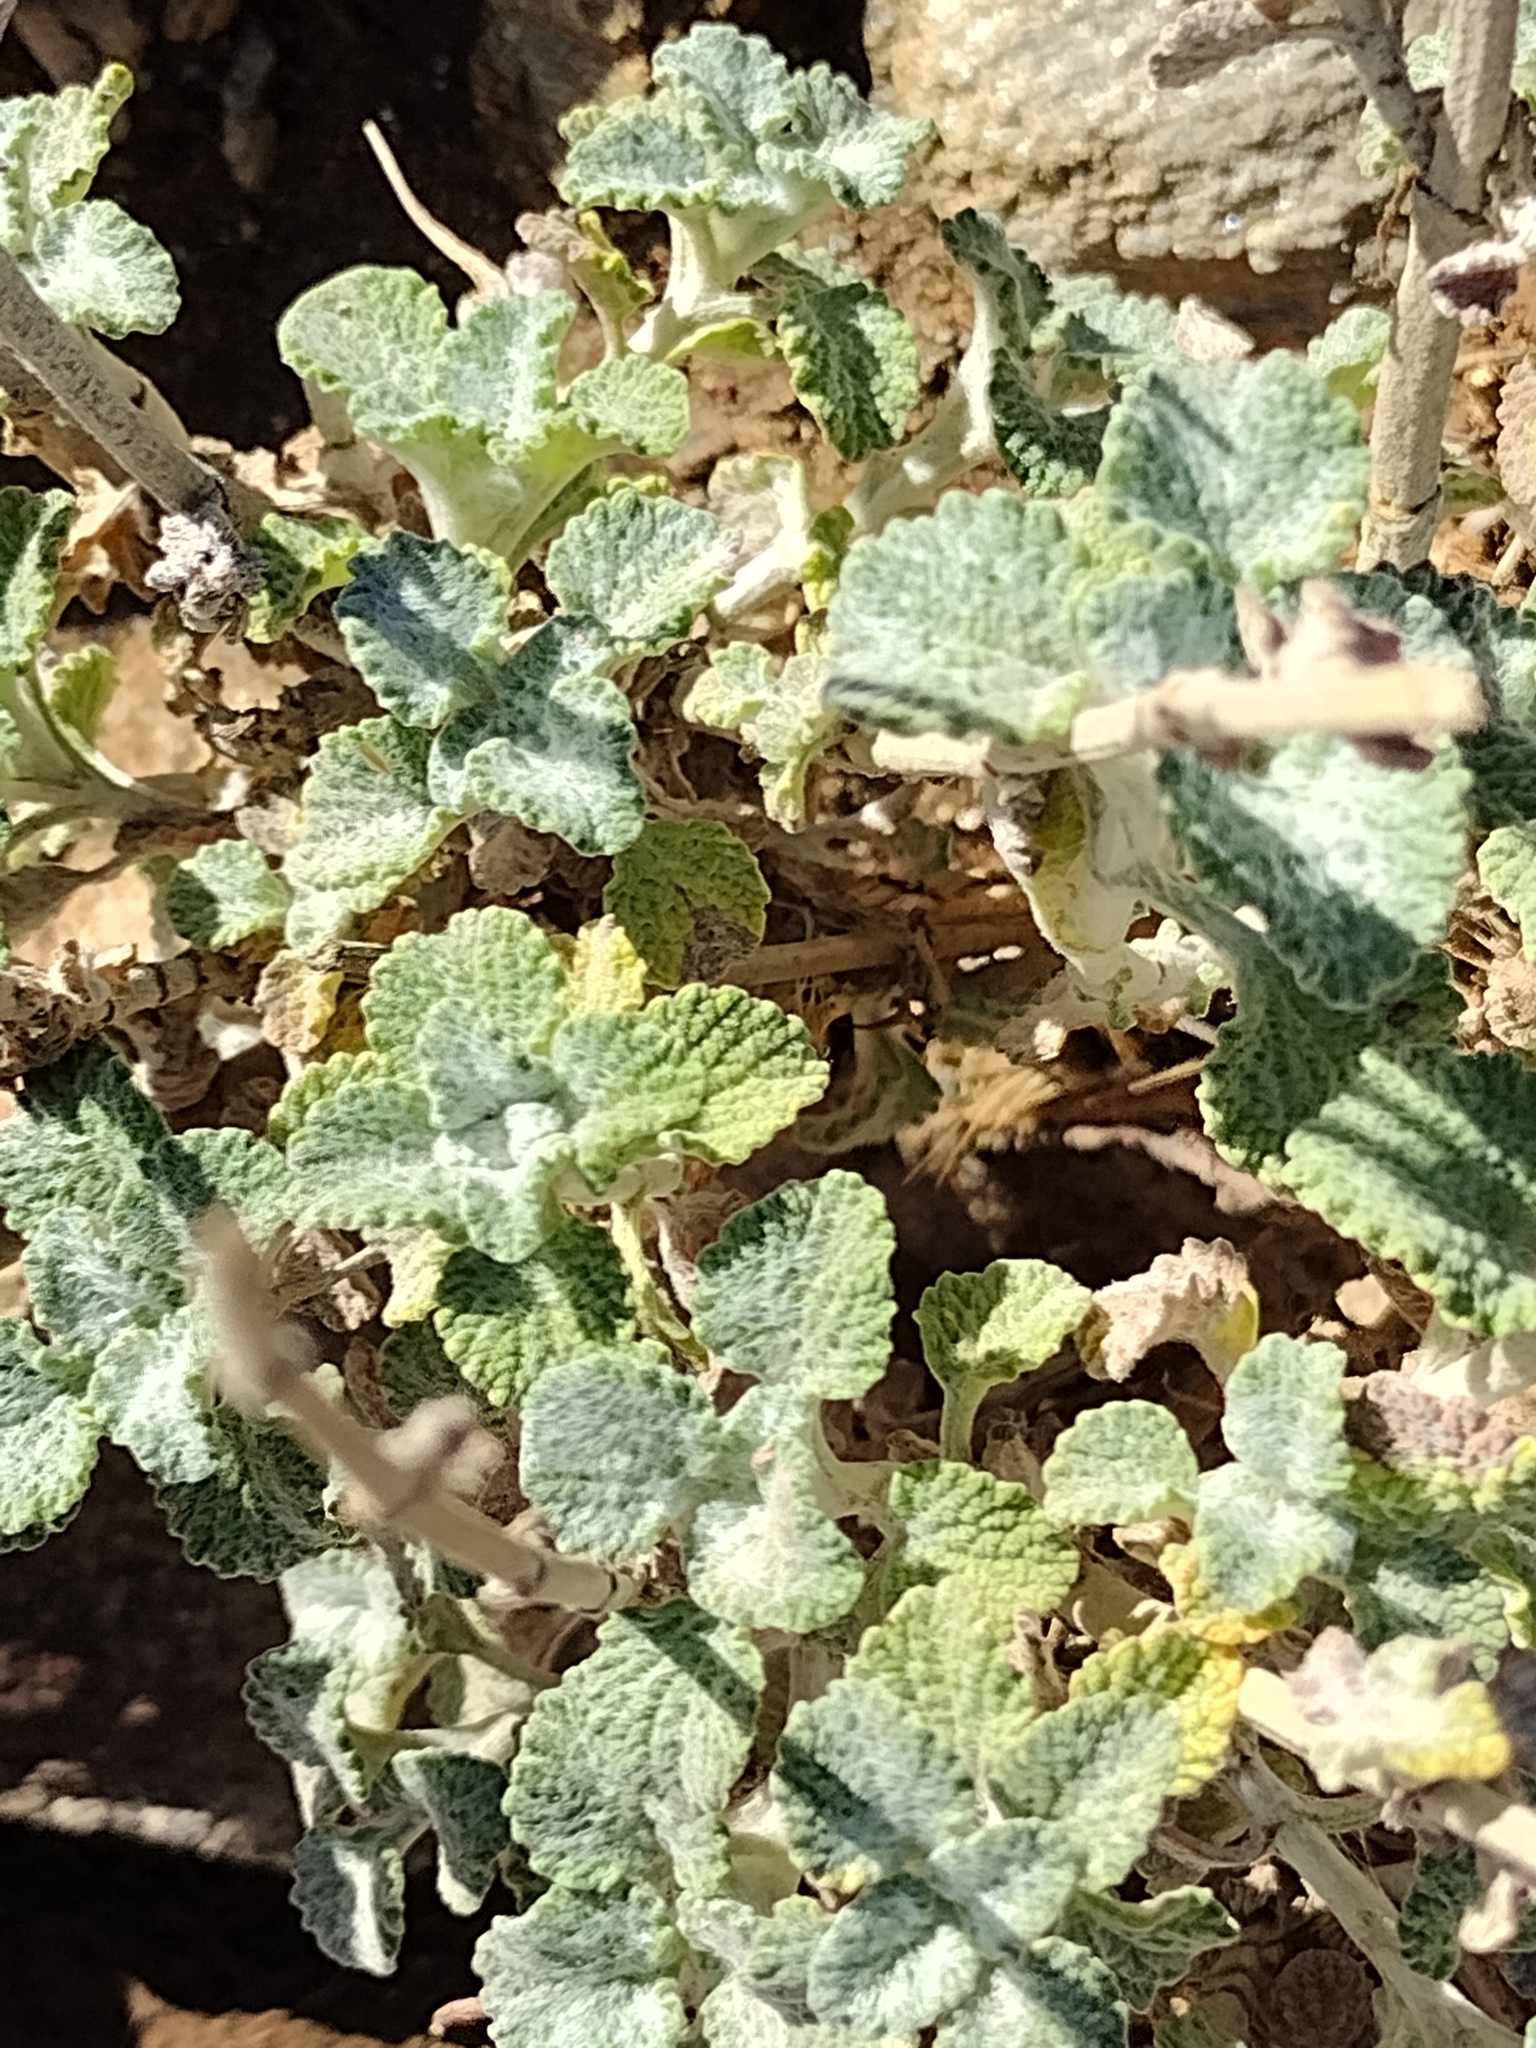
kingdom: Plantae
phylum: Tracheophyta
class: Magnoliopsida
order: Lamiales
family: Lamiaceae
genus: Marrubium
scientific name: Marrubium vulgare
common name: Horehound
